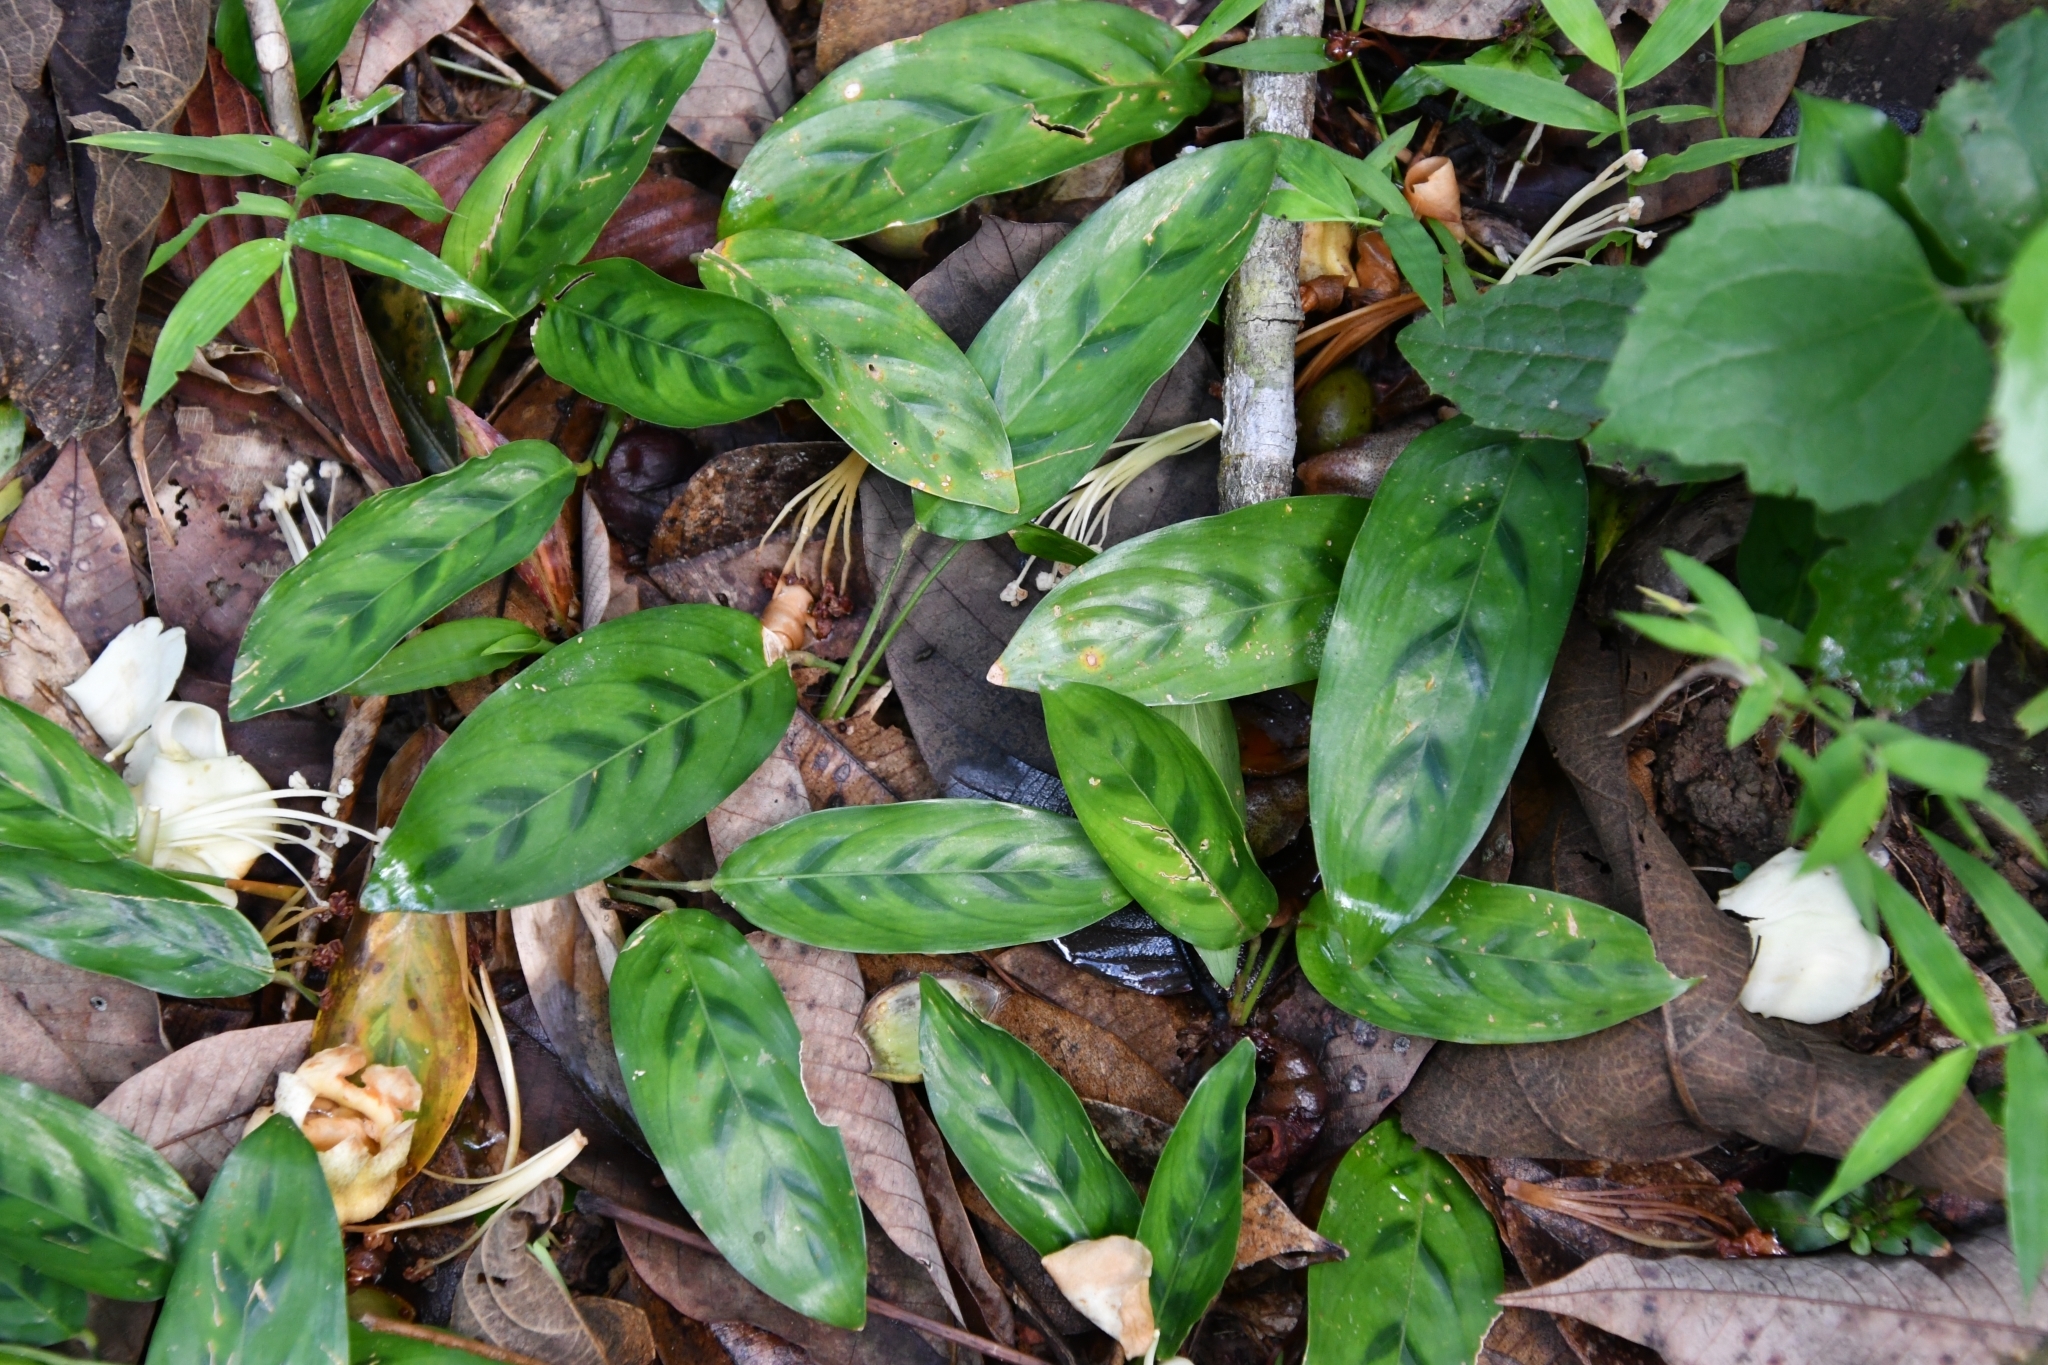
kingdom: Plantae
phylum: Tracheophyta
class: Liliopsida
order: Zingiberales
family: Marantaceae
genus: Stachyphrynium
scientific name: Stachyphrynium repens
